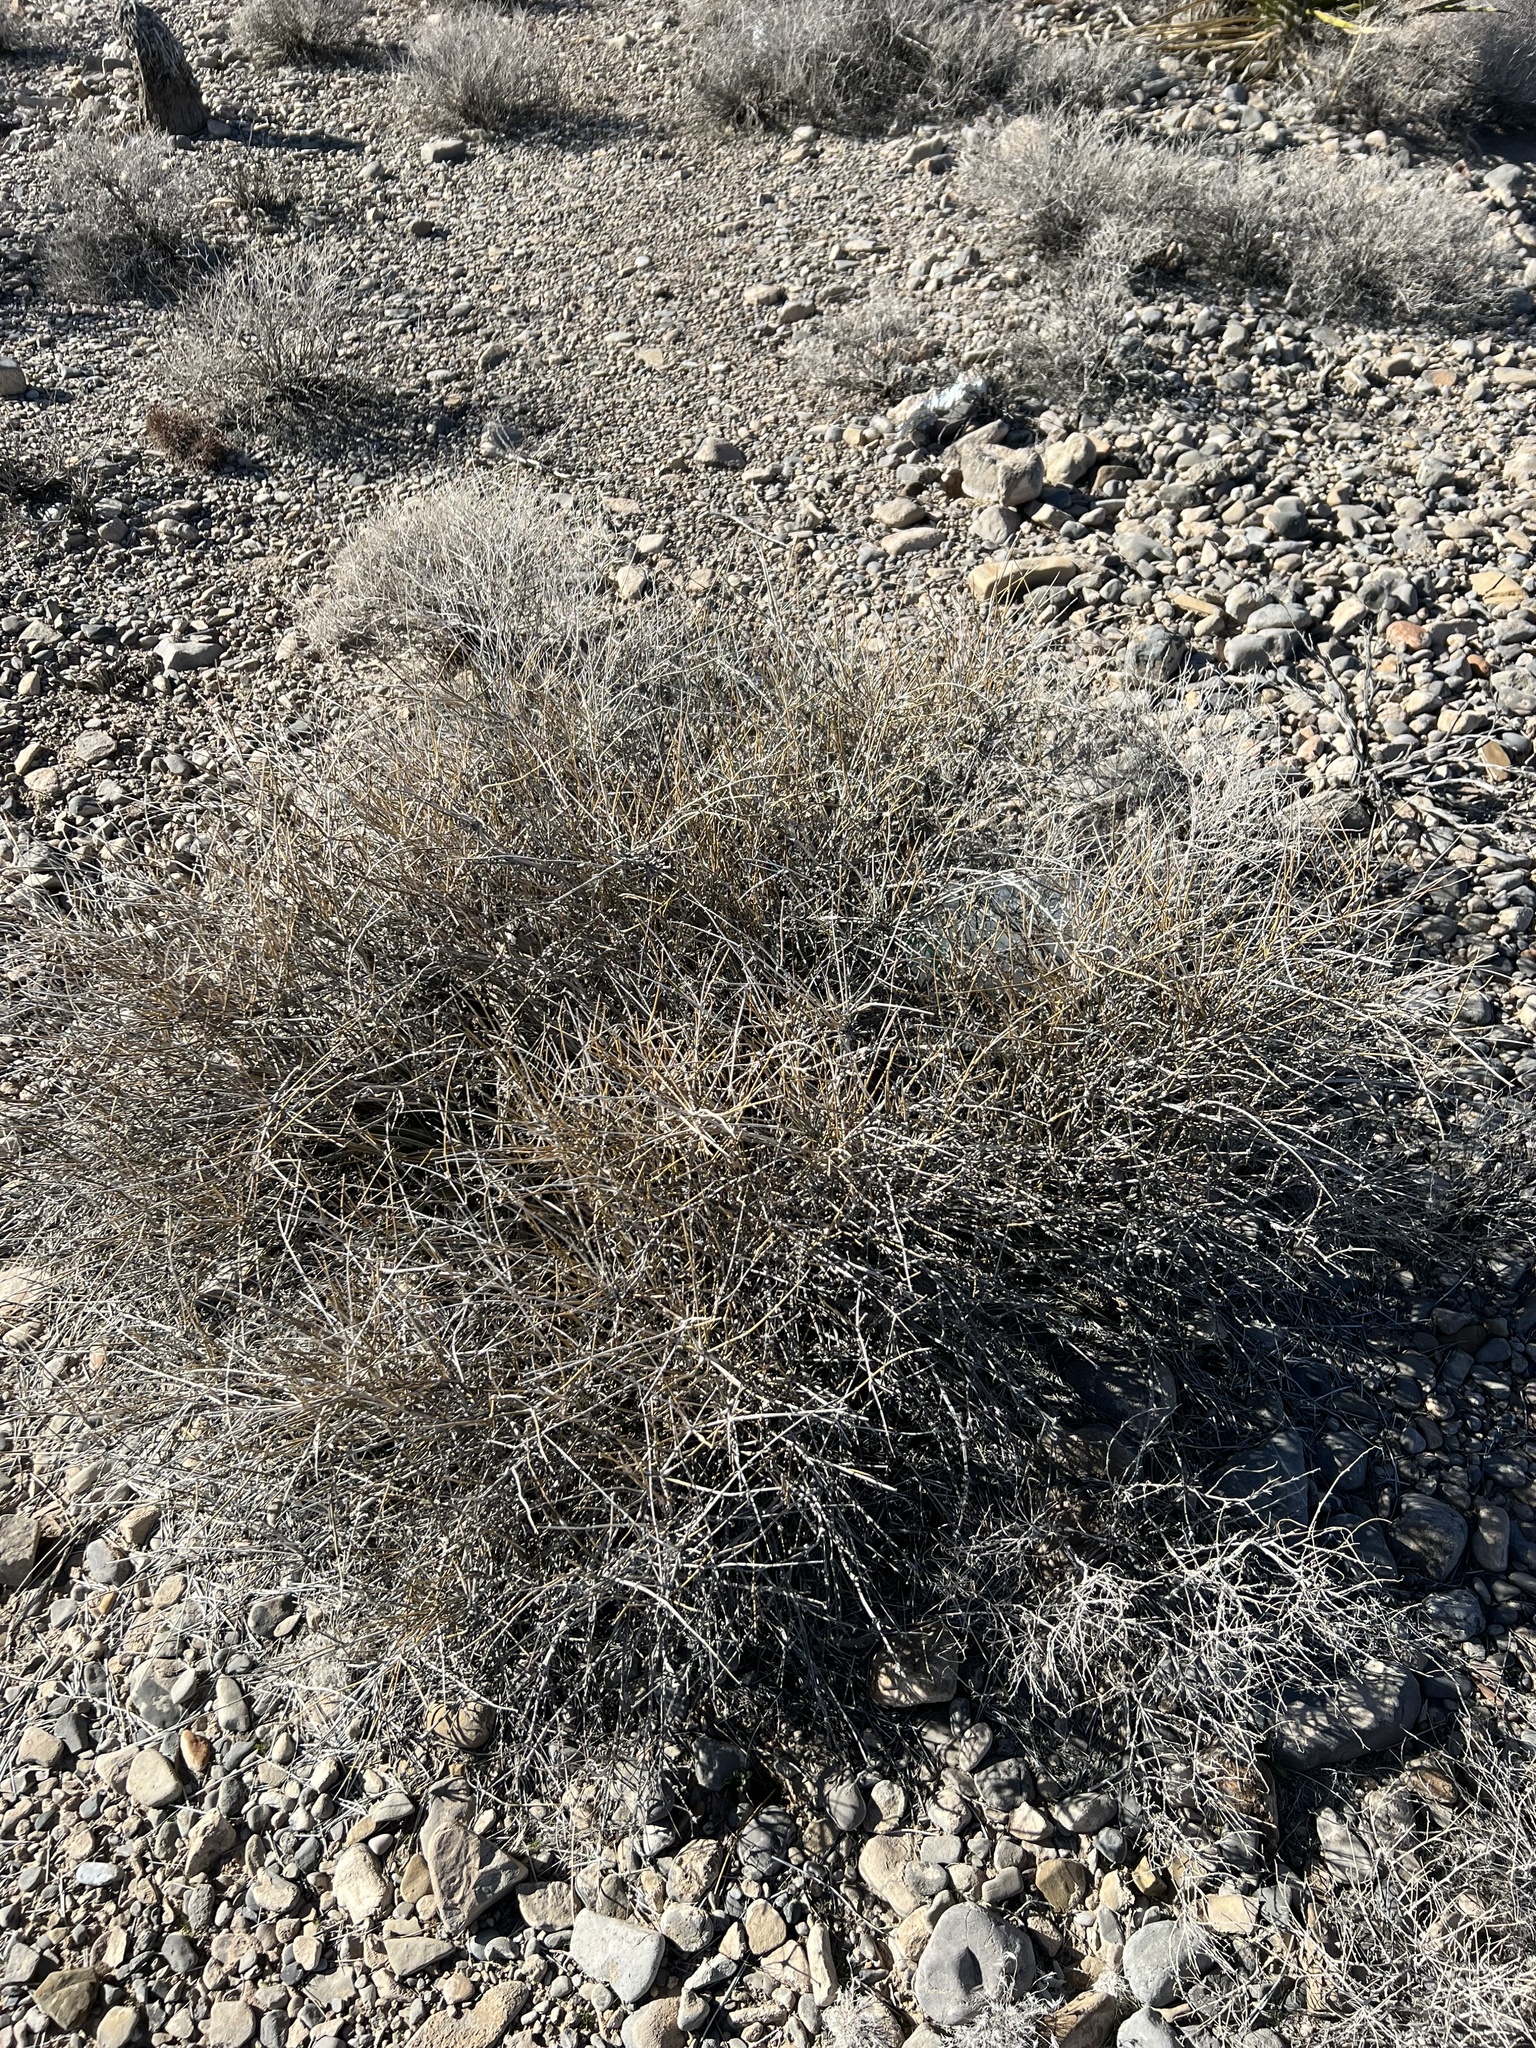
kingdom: Plantae
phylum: Tracheophyta
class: Gnetopsida
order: Ephedrales
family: Ephedraceae
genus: Ephedra
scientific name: Ephedra nevadensis
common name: Gray ephedra
